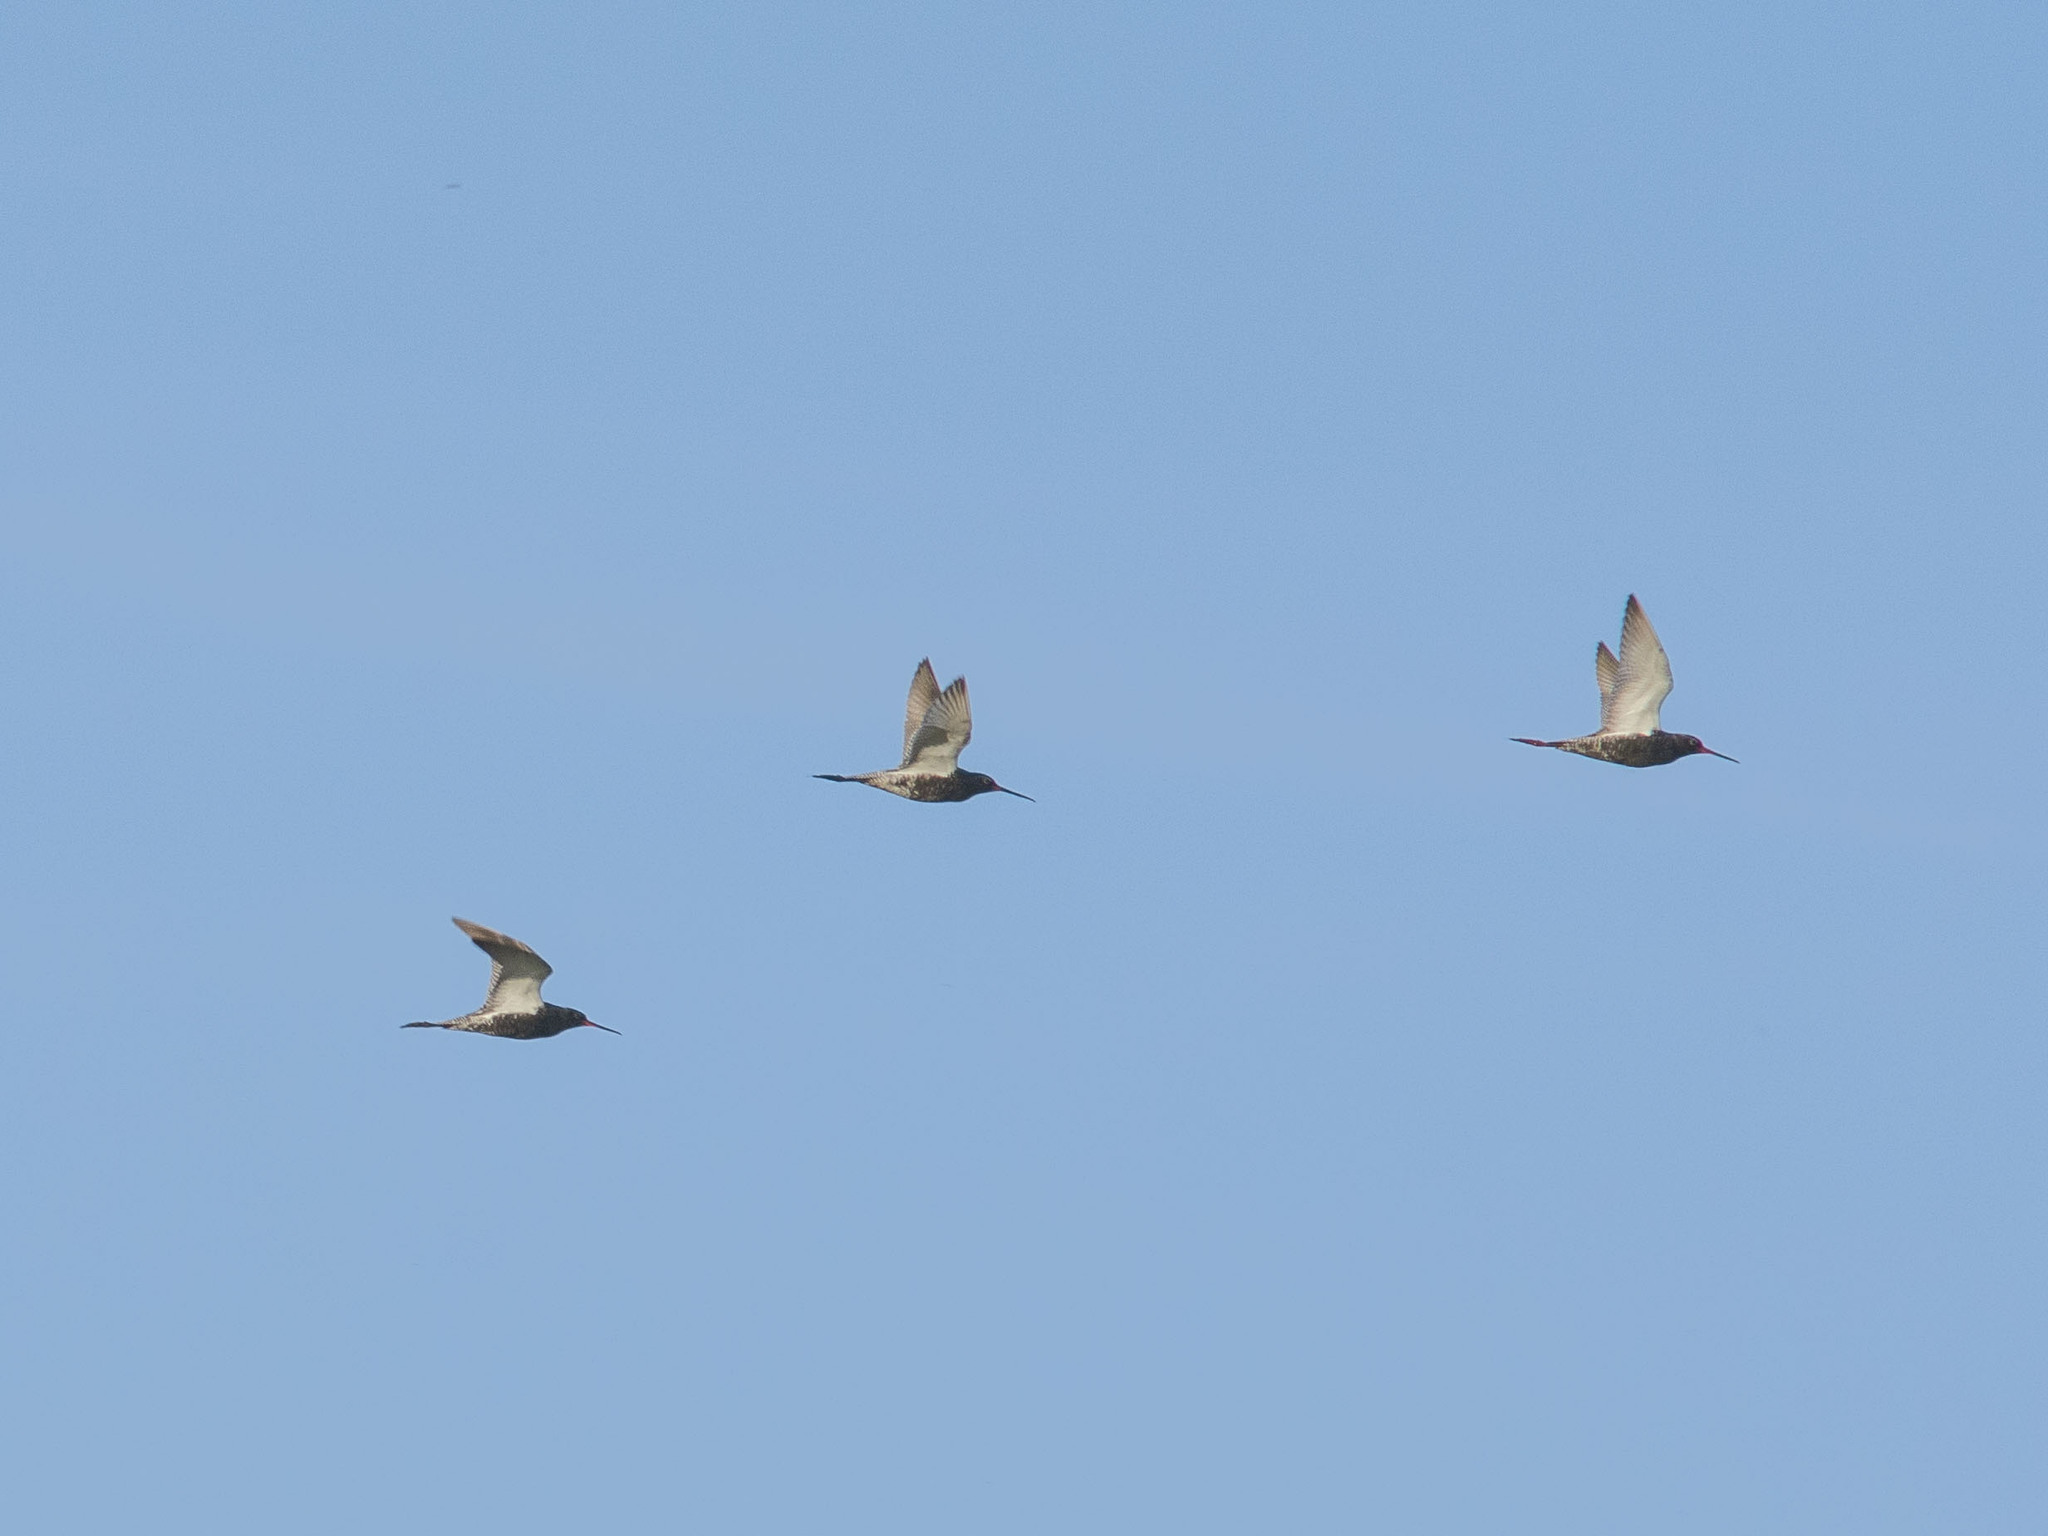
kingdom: Animalia
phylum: Chordata
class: Aves
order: Charadriiformes
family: Scolopacidae
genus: Tringa
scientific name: Tringa erythropus
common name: Spotted redshank
